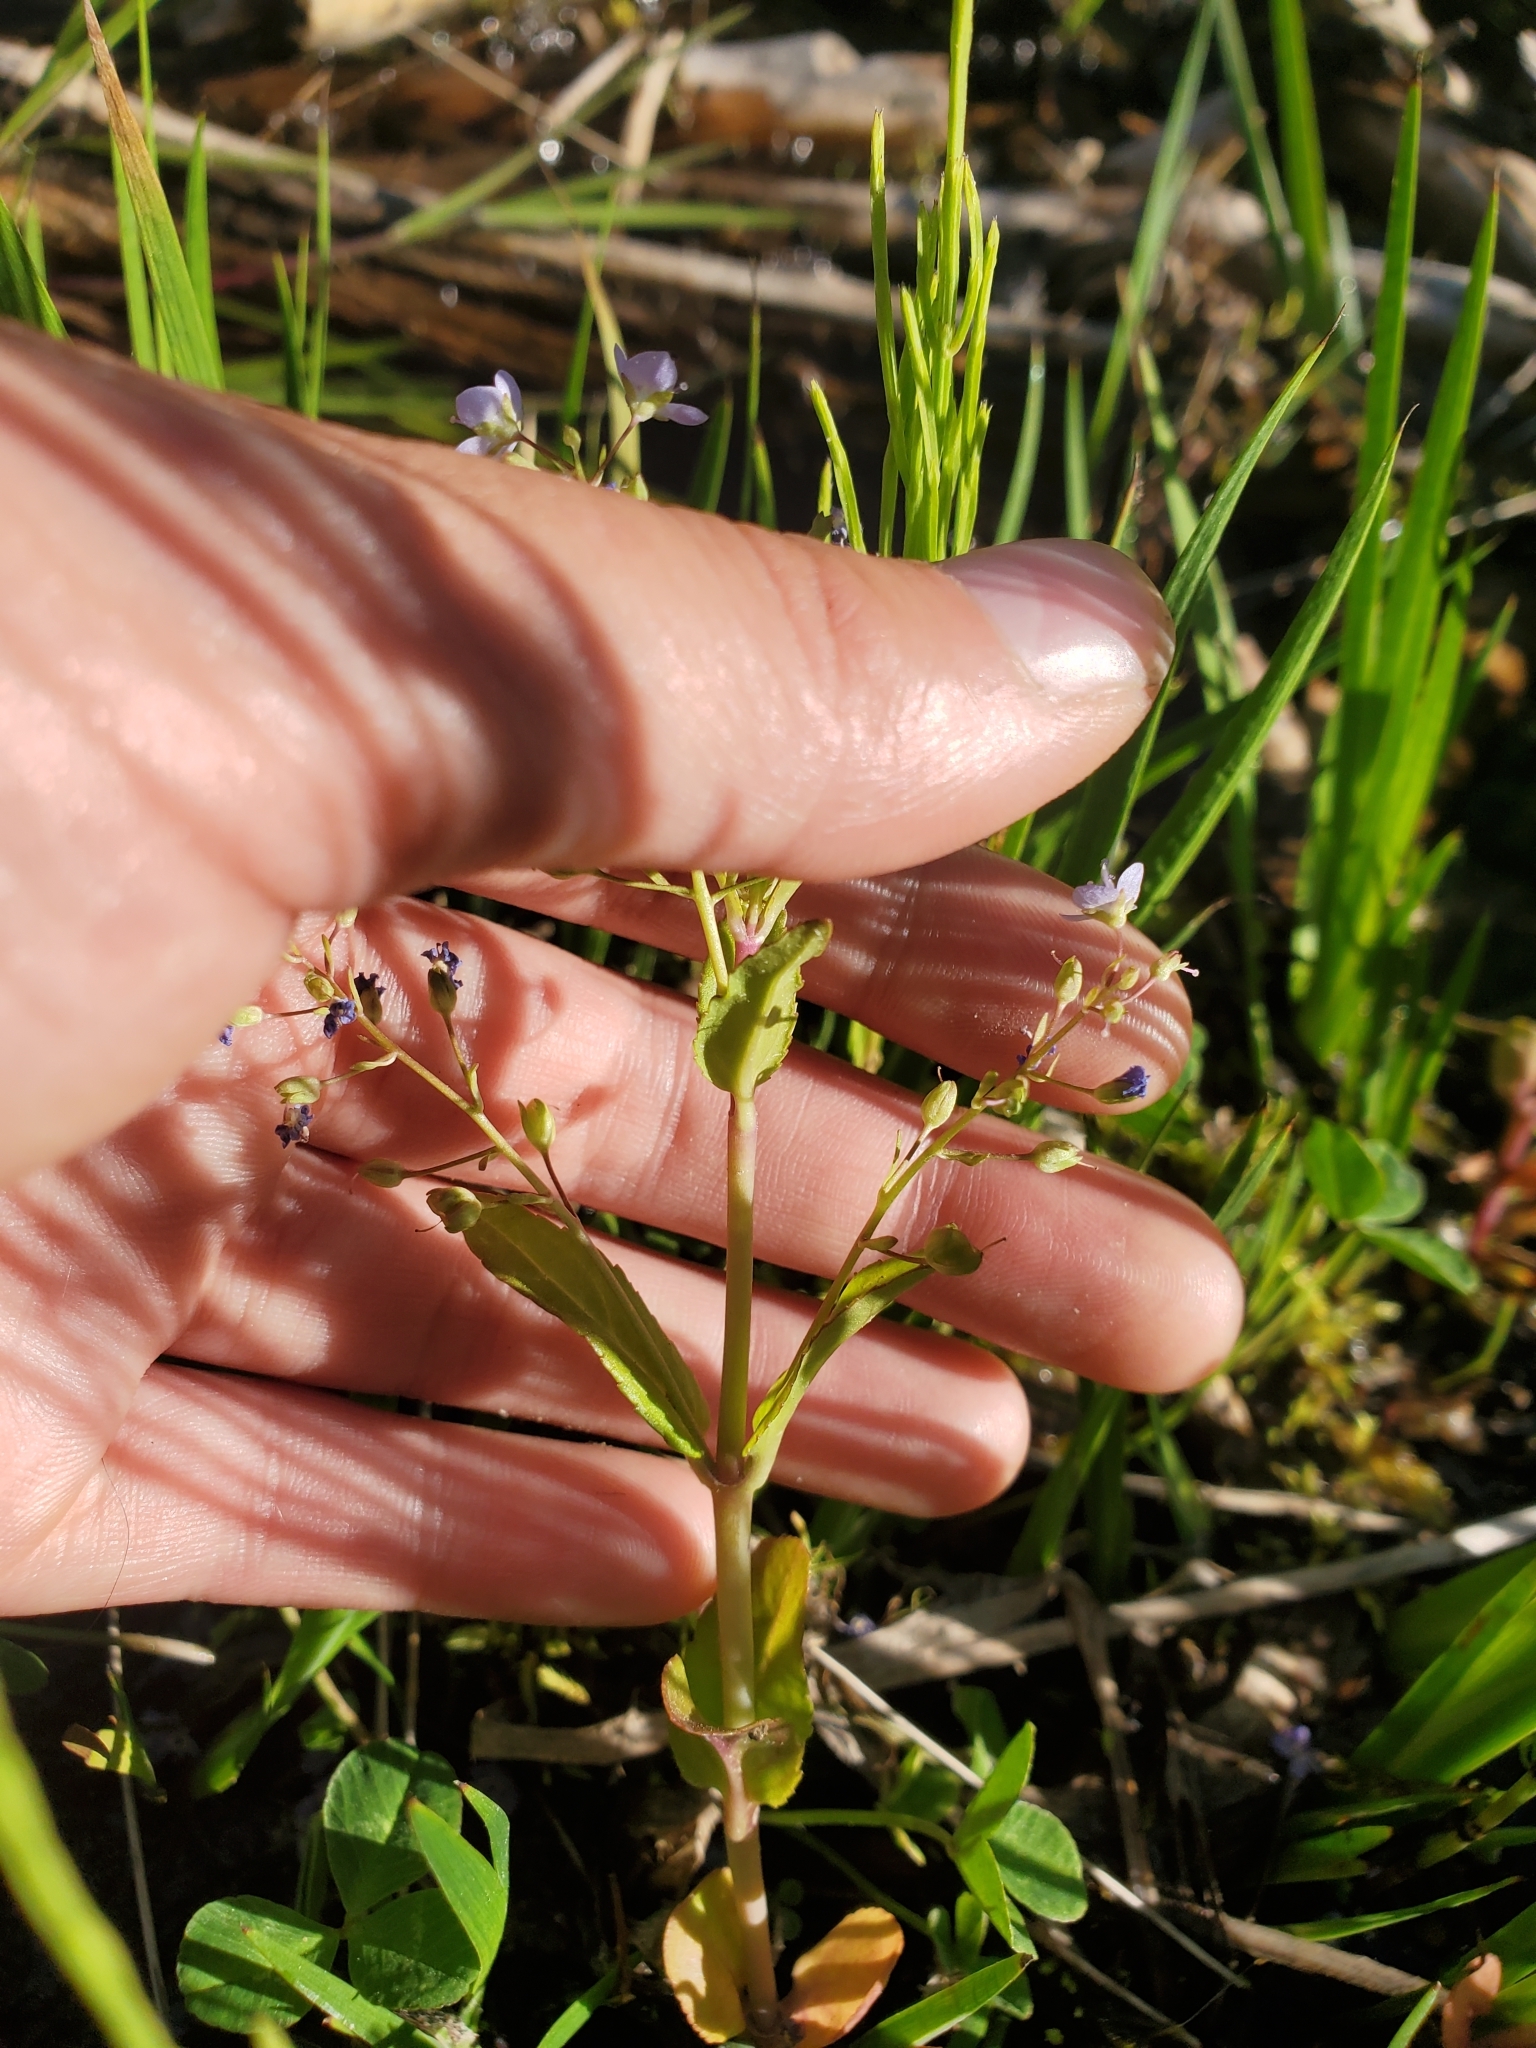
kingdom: Plantae
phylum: Tracheophyta
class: Magnoliopsida
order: Lamiales
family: Plantaginaceae
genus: Veronica
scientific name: Veronica anagallis-aquatica
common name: Water speedwell
